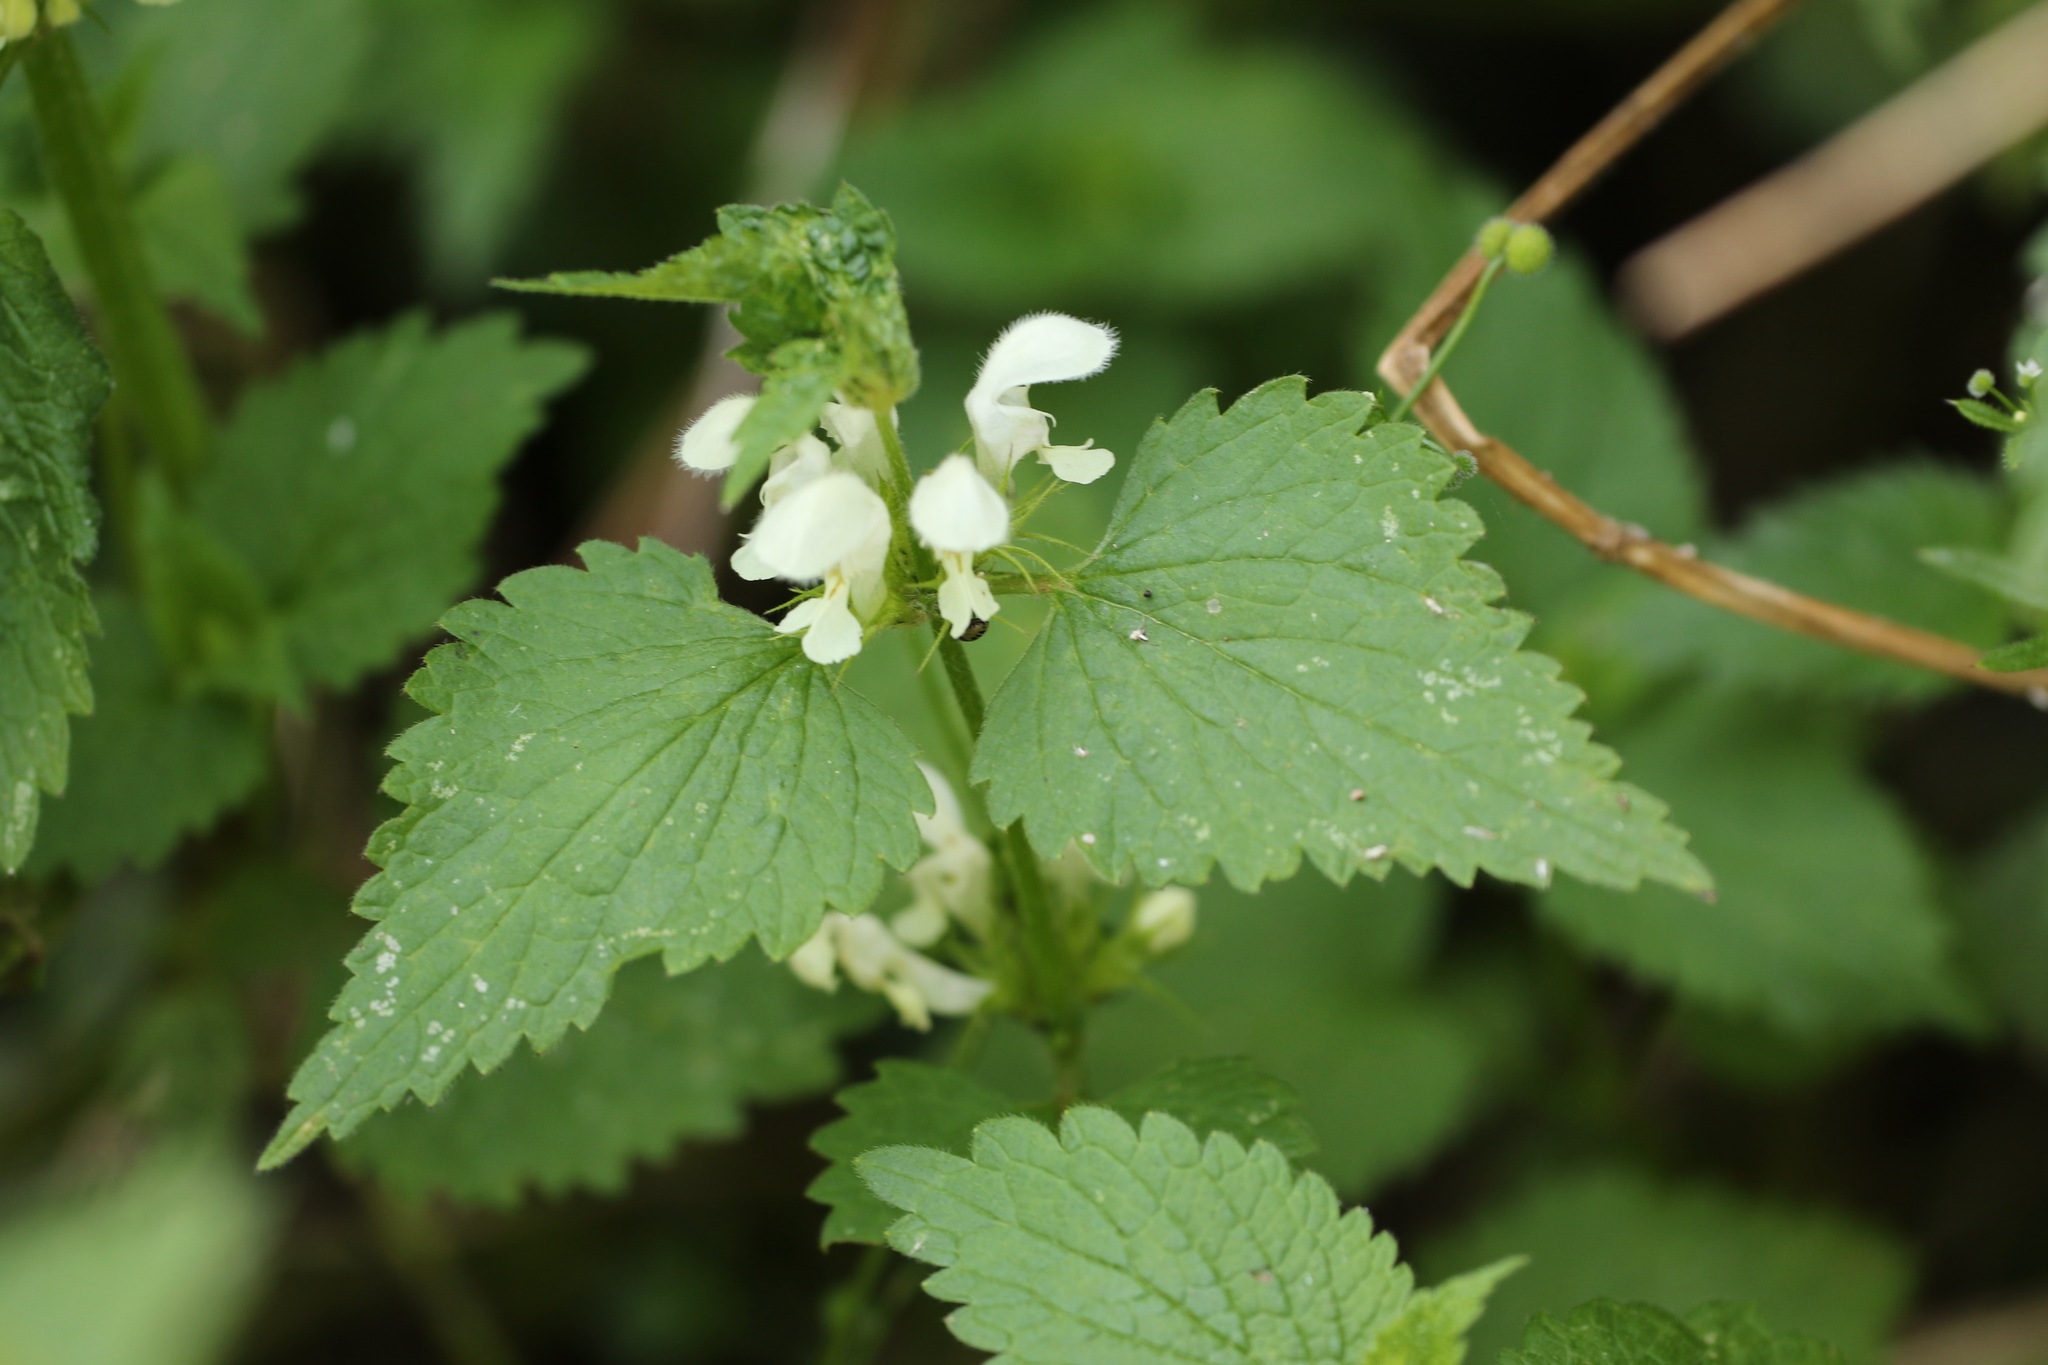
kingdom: Plantae
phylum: Tracheophyta
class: Magnoliopsida
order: Lamiales
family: Lamiaceae
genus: Lamium
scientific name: Lamium album
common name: White dead-nettle
